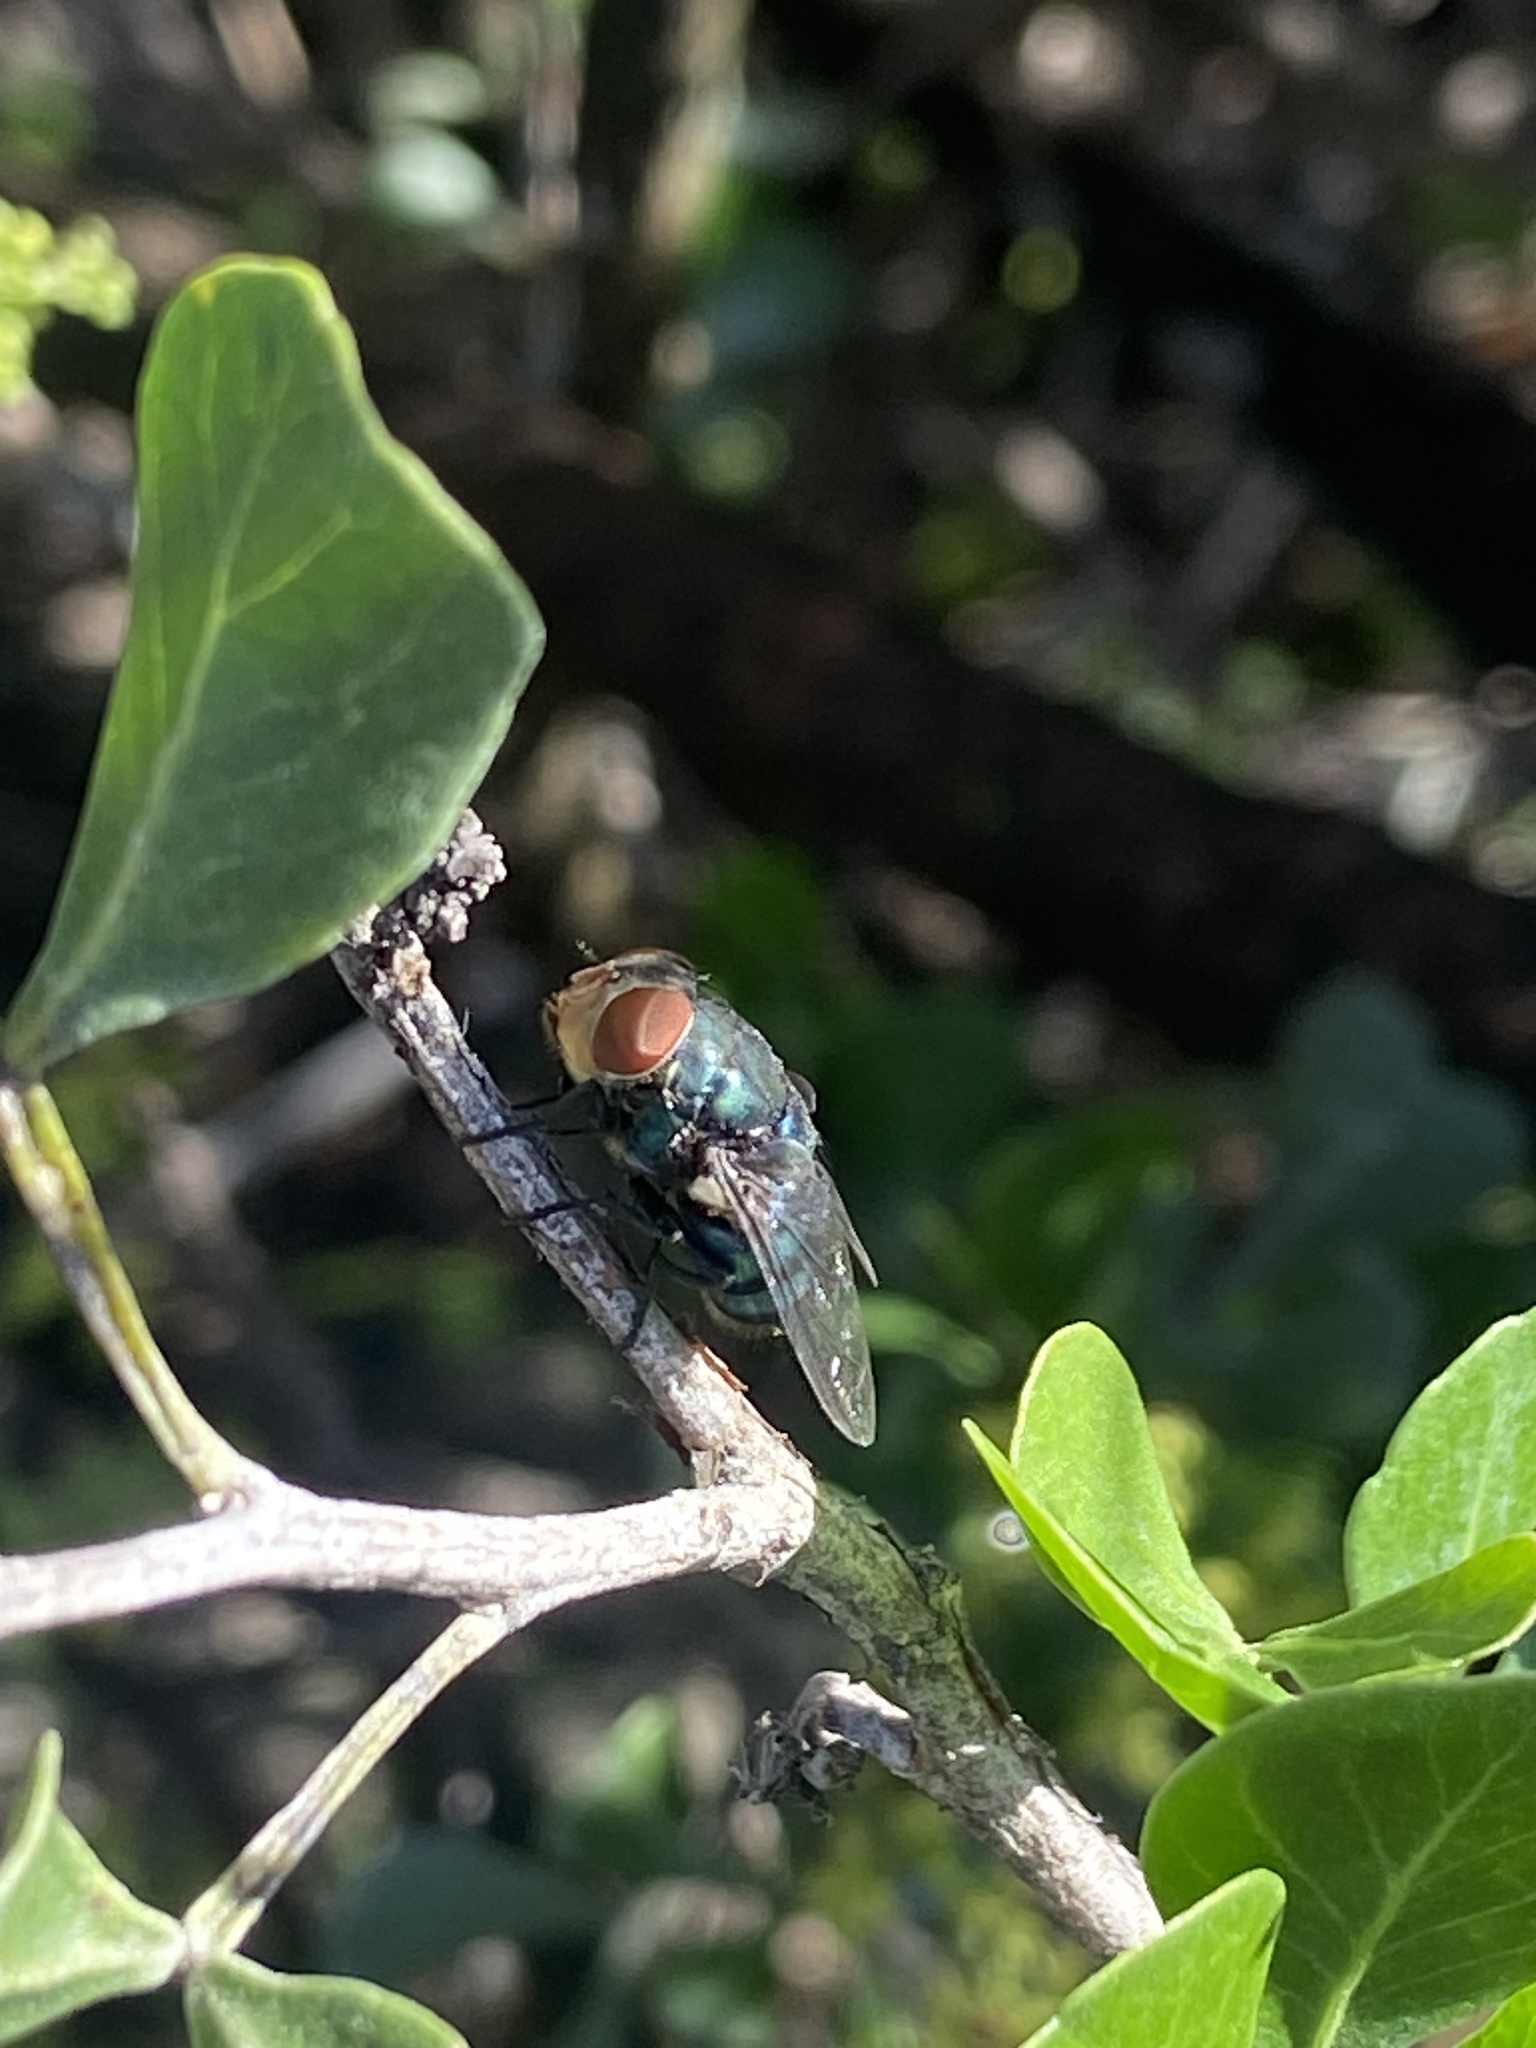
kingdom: Animalia
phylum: Arthropoda
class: Insecta
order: Diptera
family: Calliphoridae
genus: Chrysomya
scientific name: Chrysomya megacephala
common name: Blow fly
